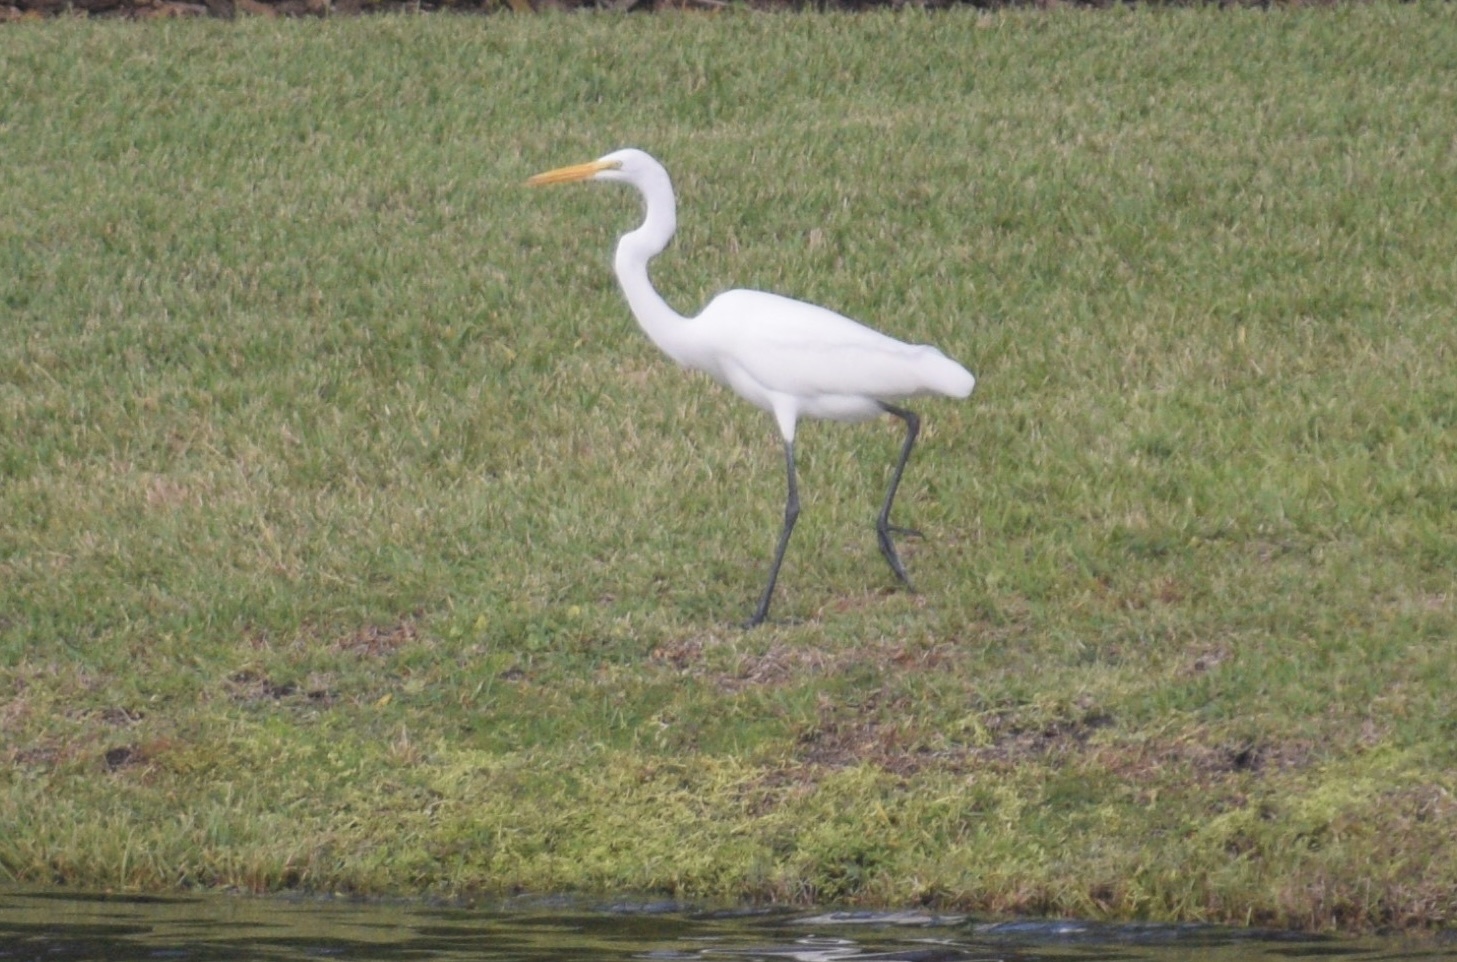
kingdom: Animalia
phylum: Chordata
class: Aves
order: Pelecaniformes
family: Ardeidae
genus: Ardea
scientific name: Ardea alba
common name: Great egret
